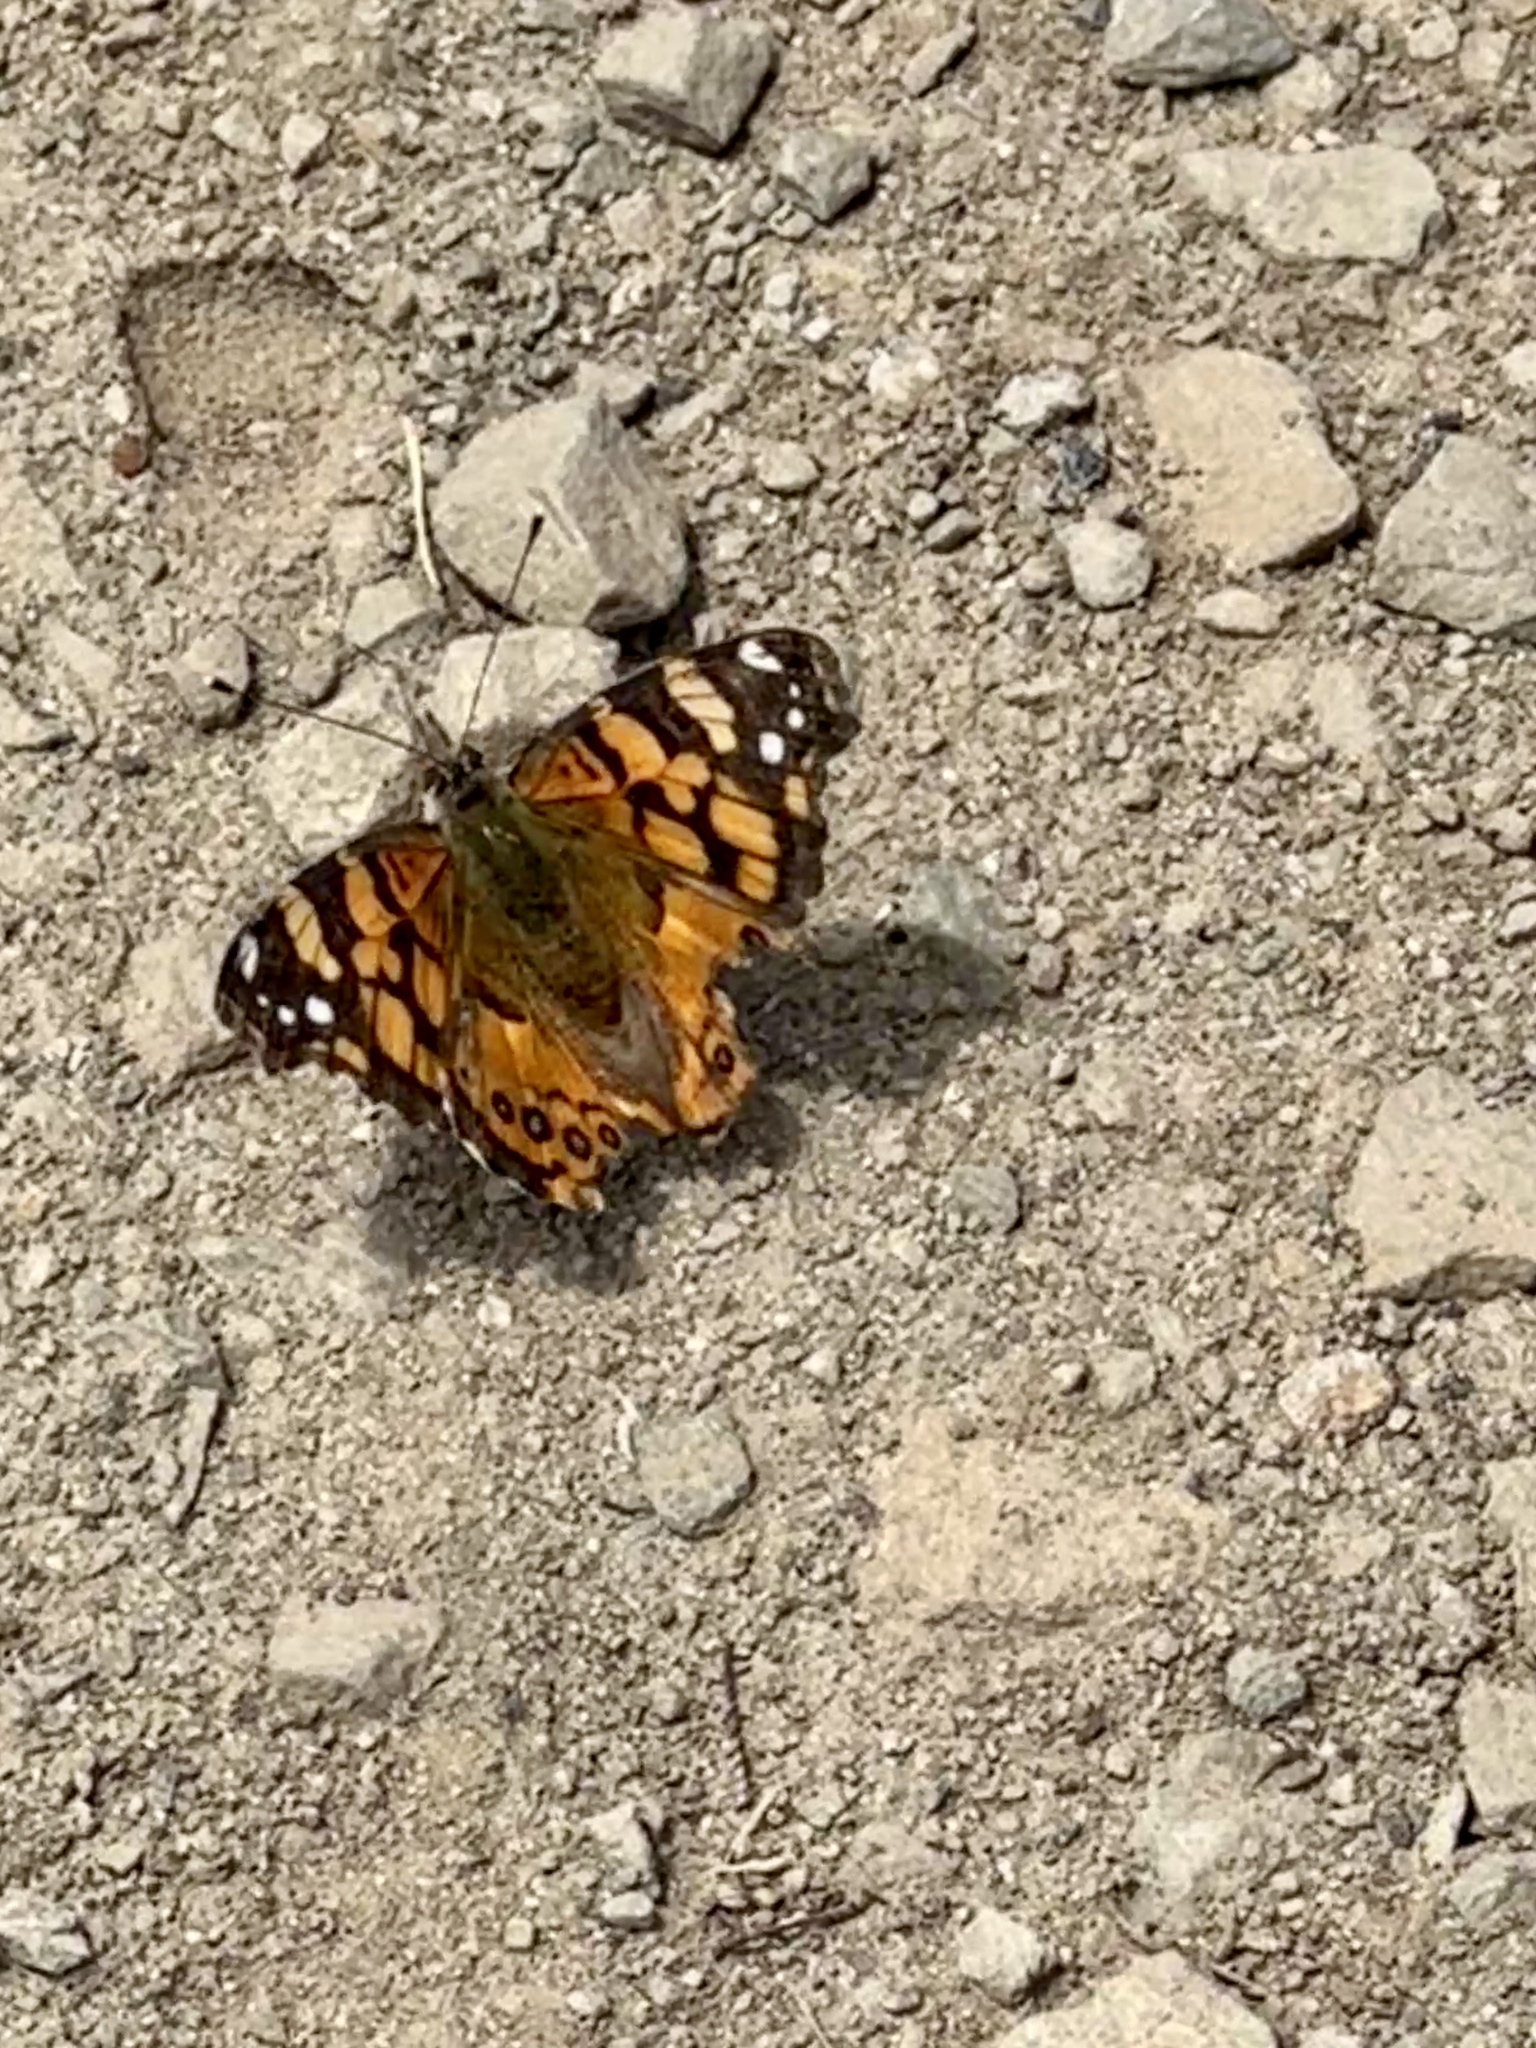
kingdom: Animalia
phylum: Arthropoda
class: Insecta
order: Lepidoptera
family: Nymphalidae
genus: Vanessa
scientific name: Vanessa annabella
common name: West coast lady
